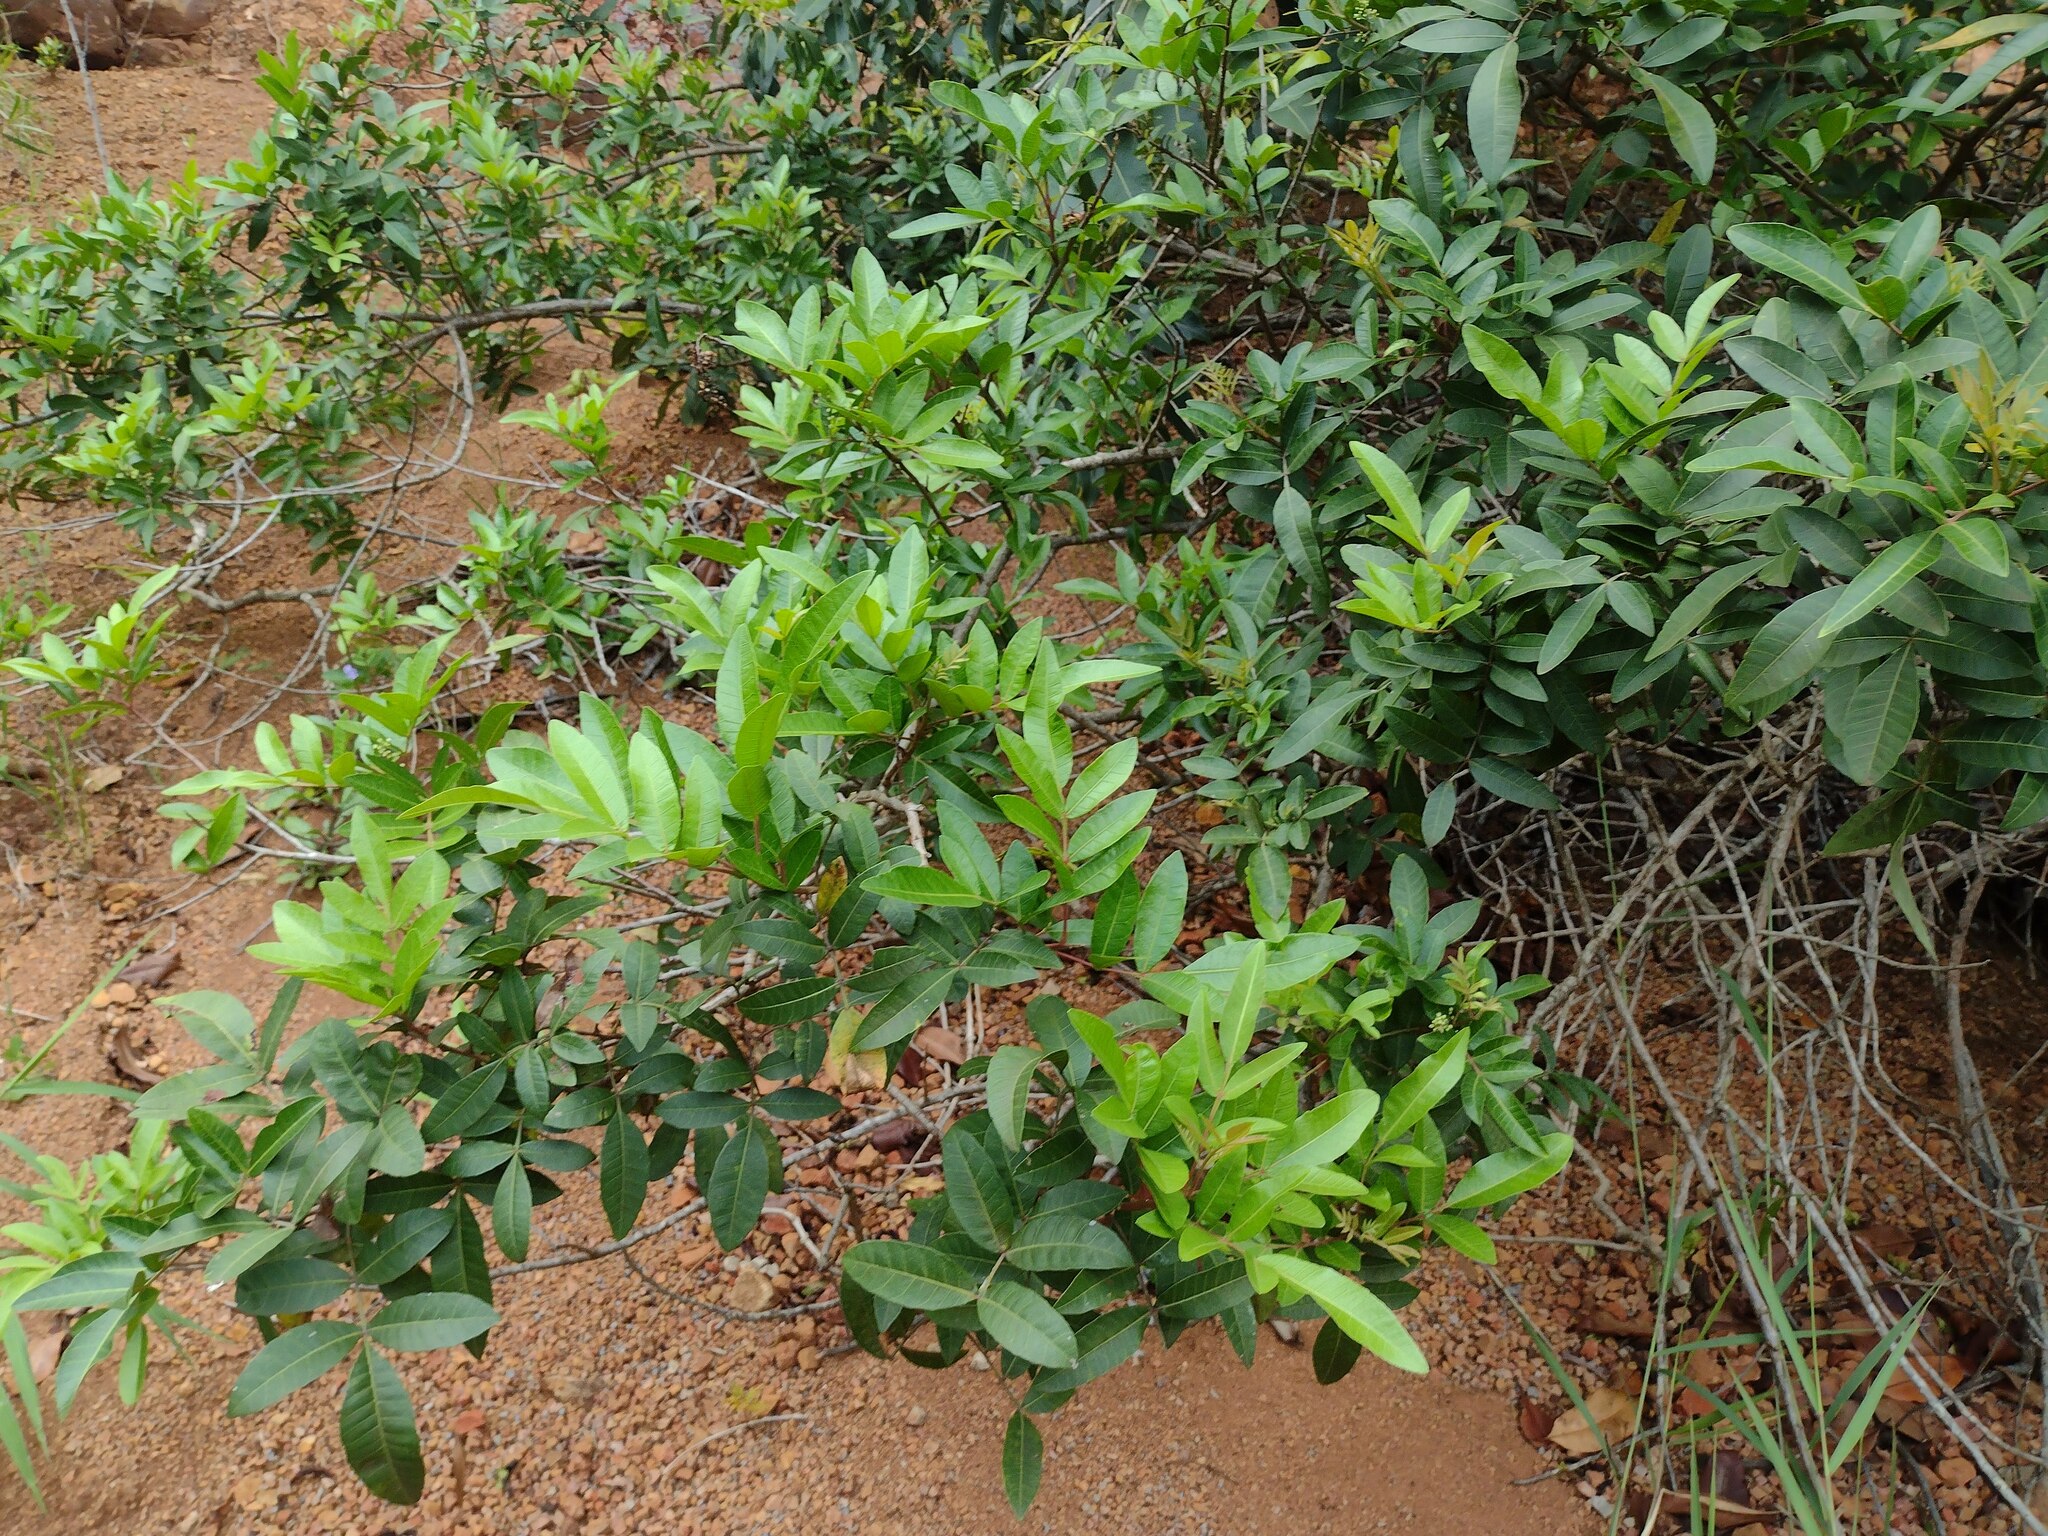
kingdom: Plantae
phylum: Tracheophyta
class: Magnoliopsida
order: Sapindales
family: Anacardiaceae
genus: Schinus
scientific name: Schinus terebinthifolia
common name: Brazilian peppertree
